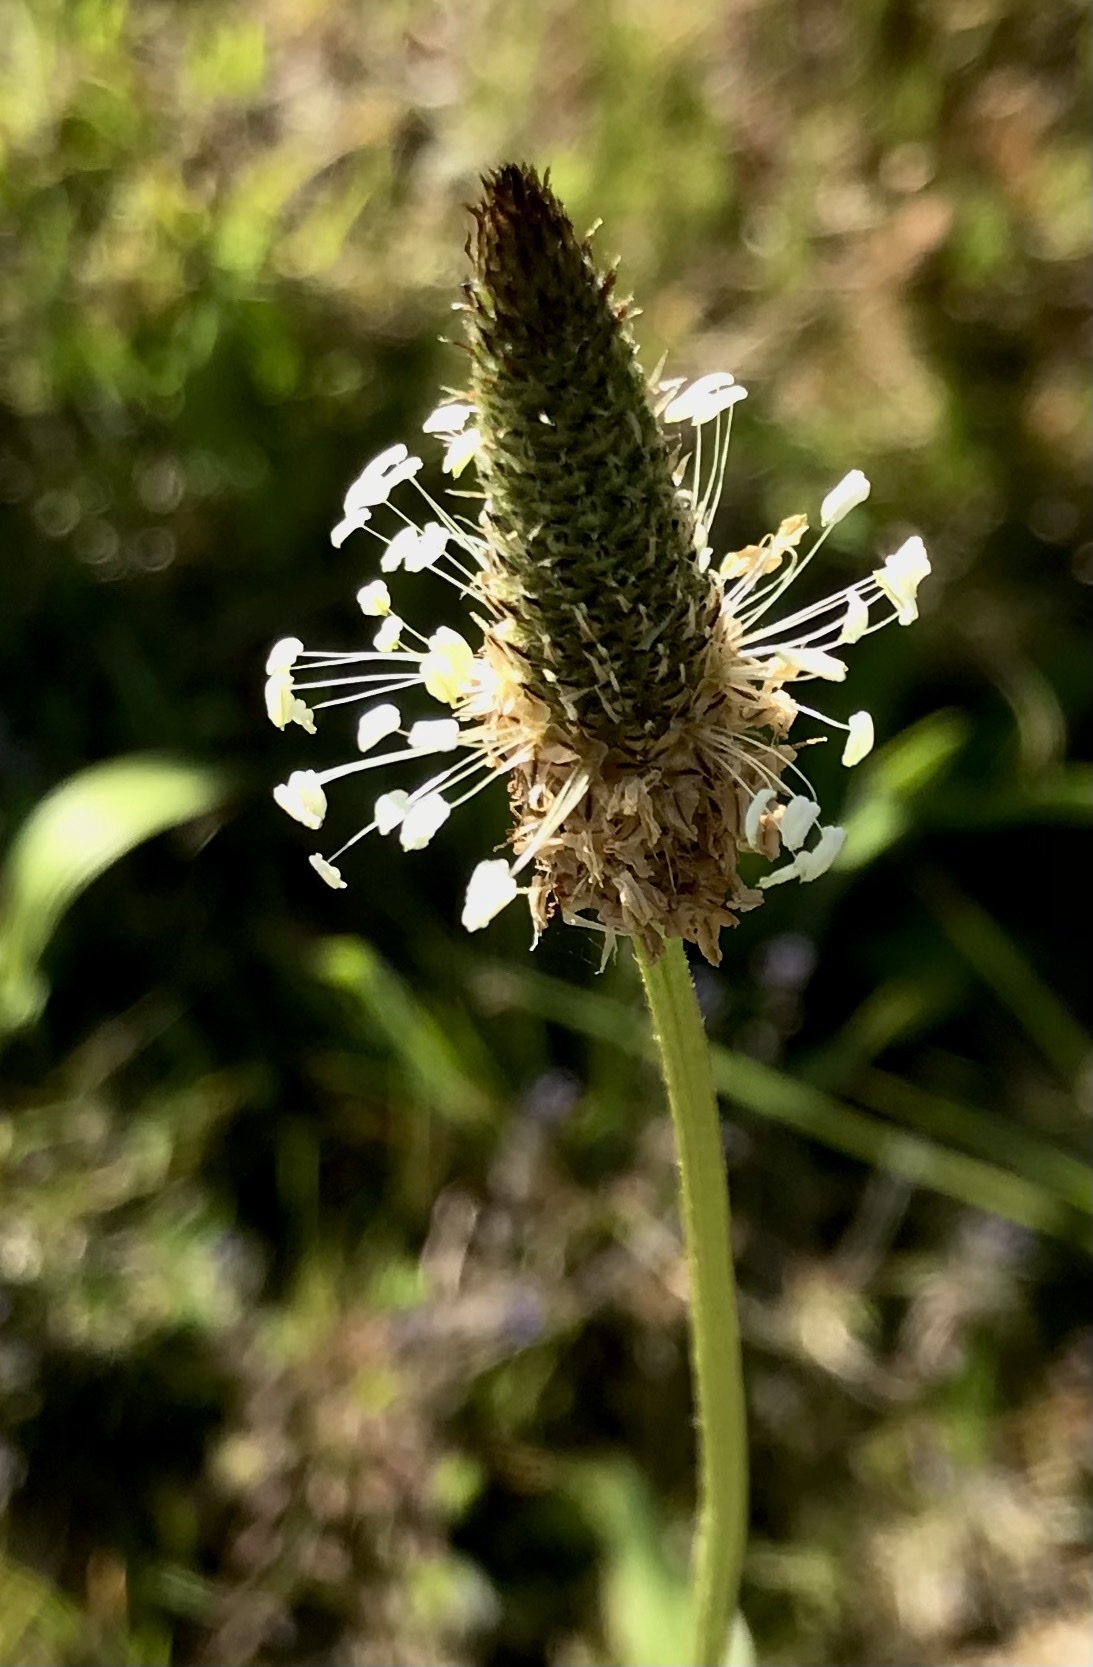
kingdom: Plantae
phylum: Tracheophyta
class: Magnoliopsida
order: Lamiales
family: Plantaginaceae
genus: Plantago
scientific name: Plantago lanceolata
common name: Ribwort plantain
